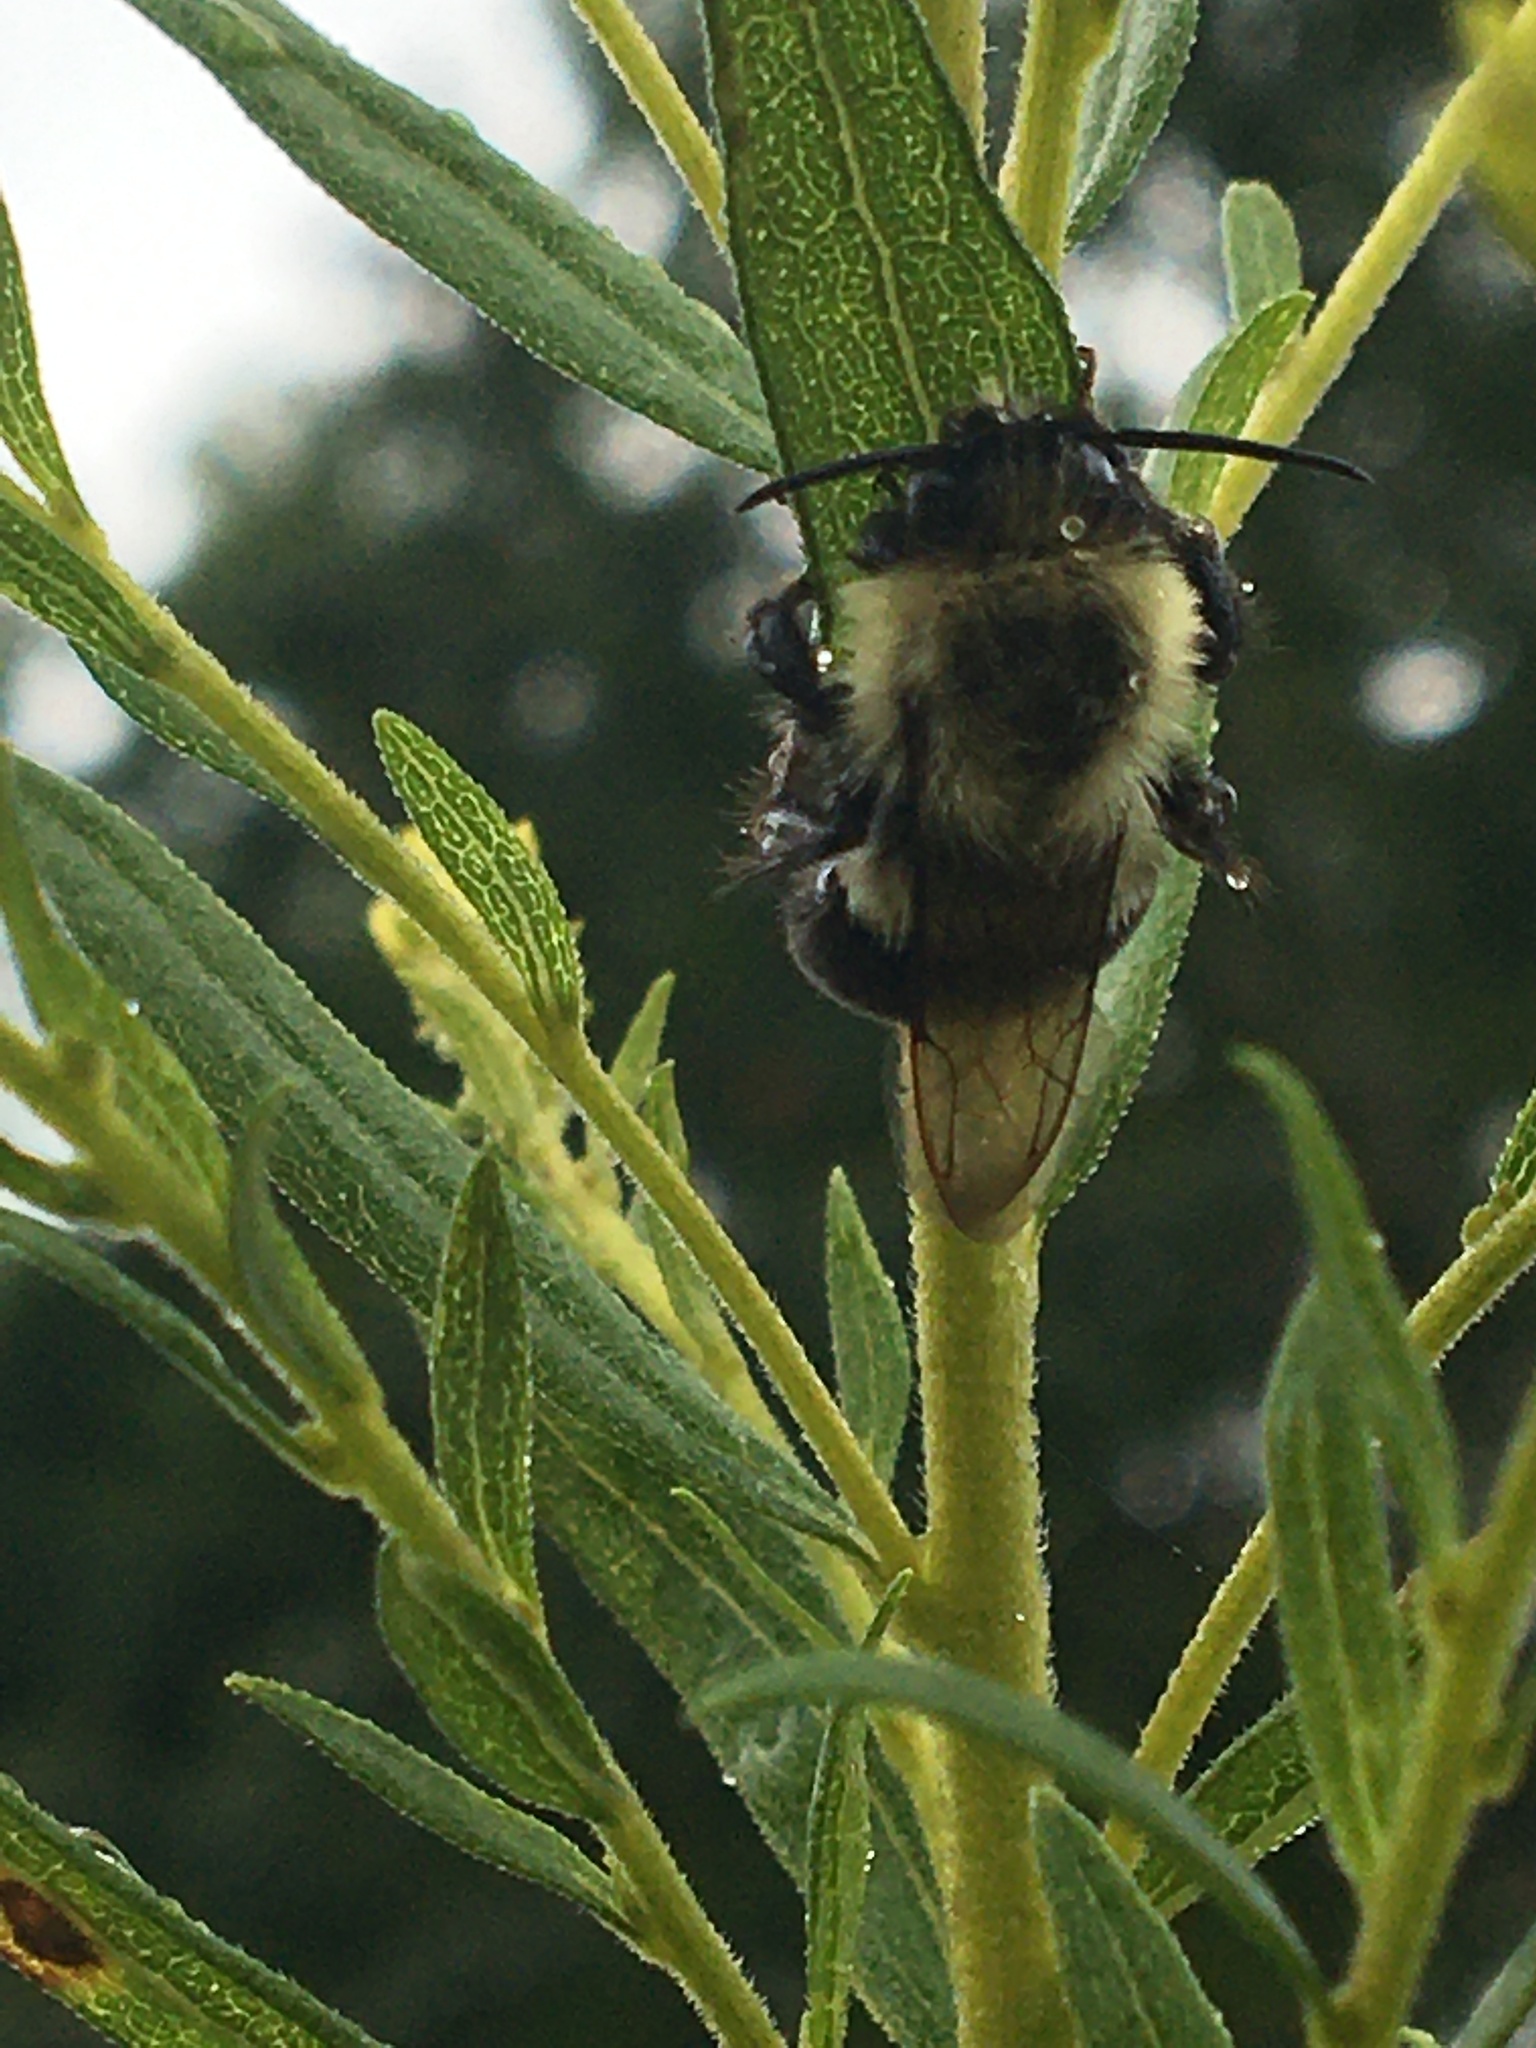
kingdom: Animalia
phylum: Arthropoda
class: Insecta
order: Hymenoptera
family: Apidae
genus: Bombus
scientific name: Bombus impatiens
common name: Common eastern bumble bee
